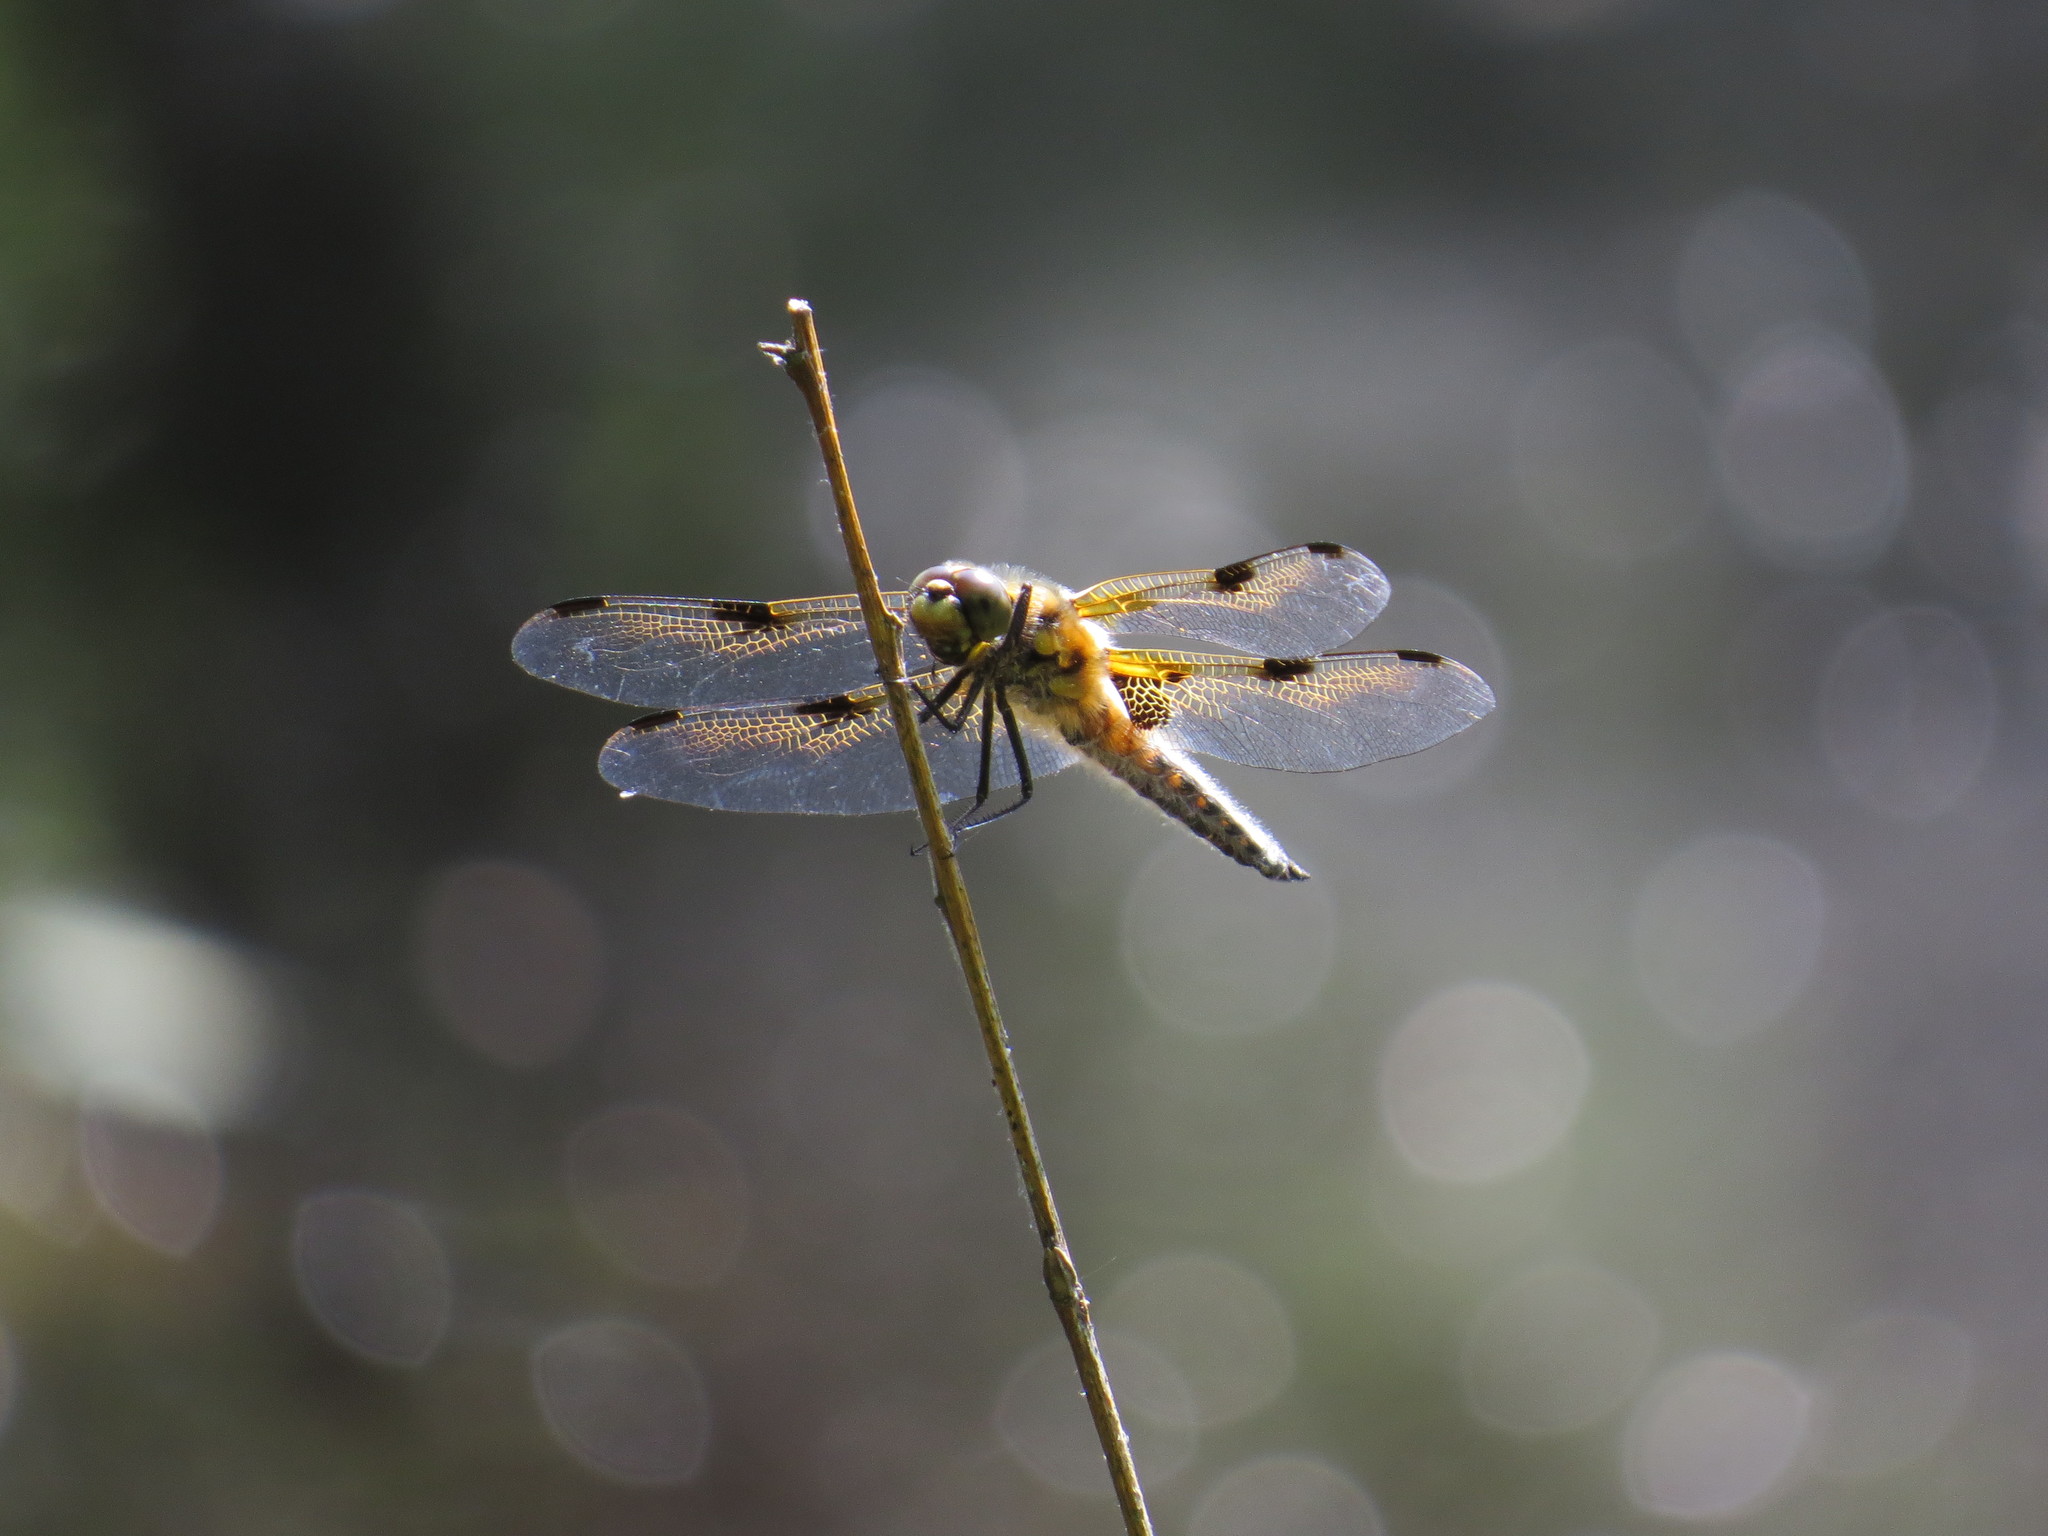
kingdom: Animalia
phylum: Arthropoda
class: Insecta
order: Odonata
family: Libellulidae
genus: Libellula
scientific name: Libellula quadrimaculata
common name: Four-spotted chaser
